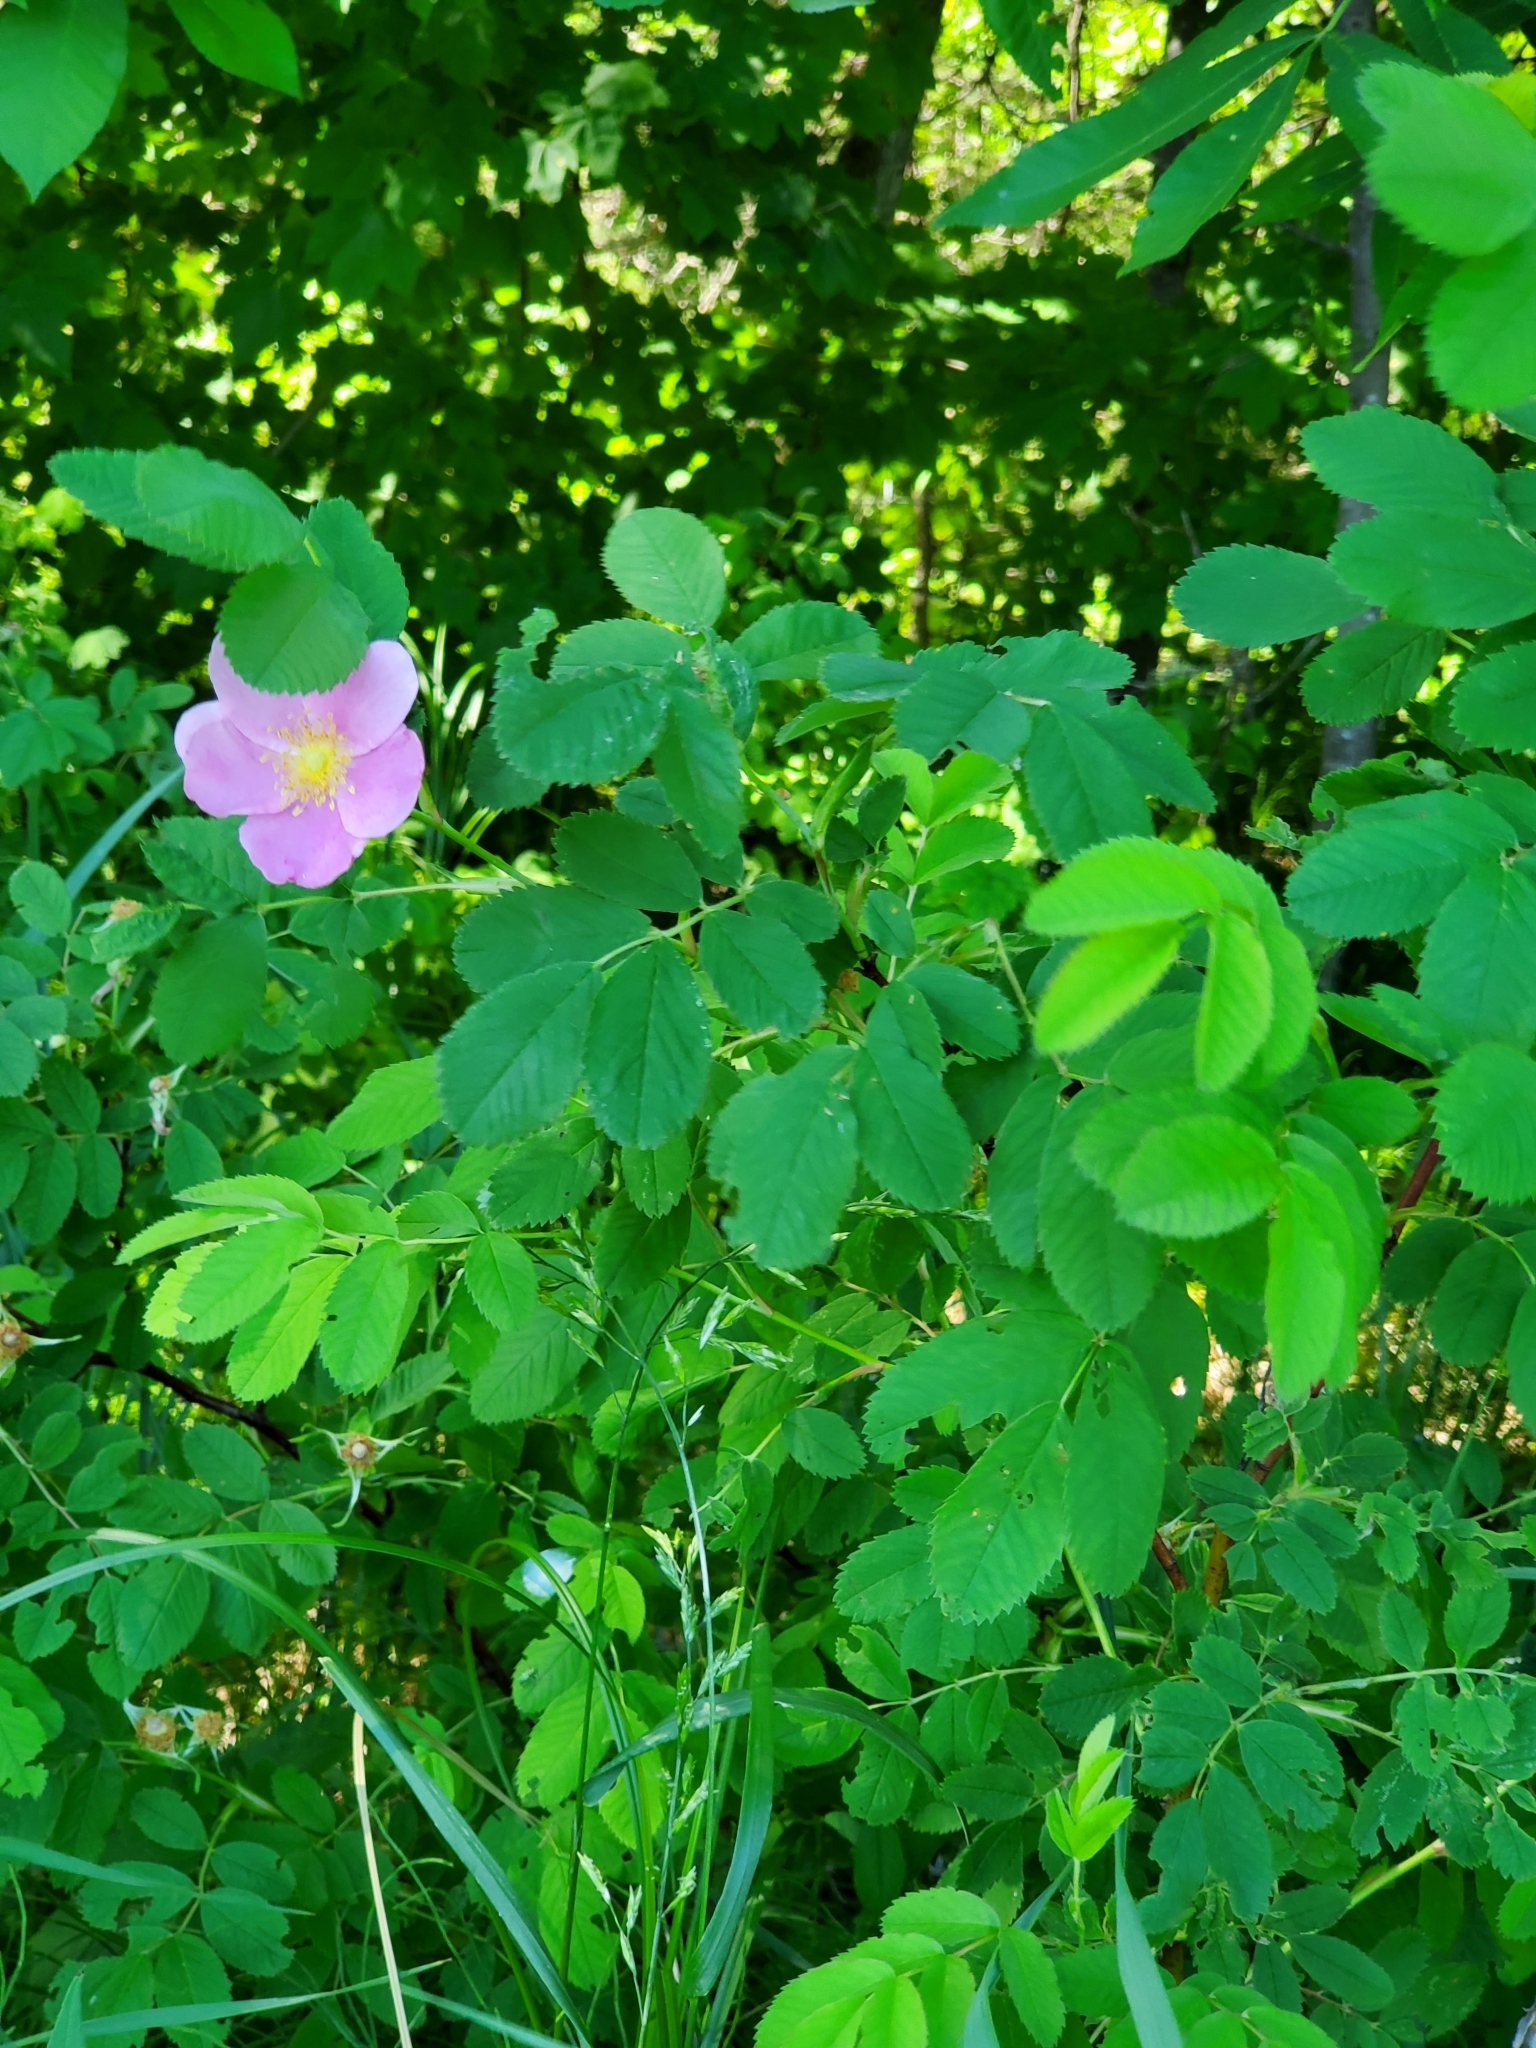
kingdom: Plantae
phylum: Tracheophyta
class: Magnoliopsida
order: Rosales
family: Rosaceae
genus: Rosa
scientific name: Rosa woodsii
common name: Woods's rose
